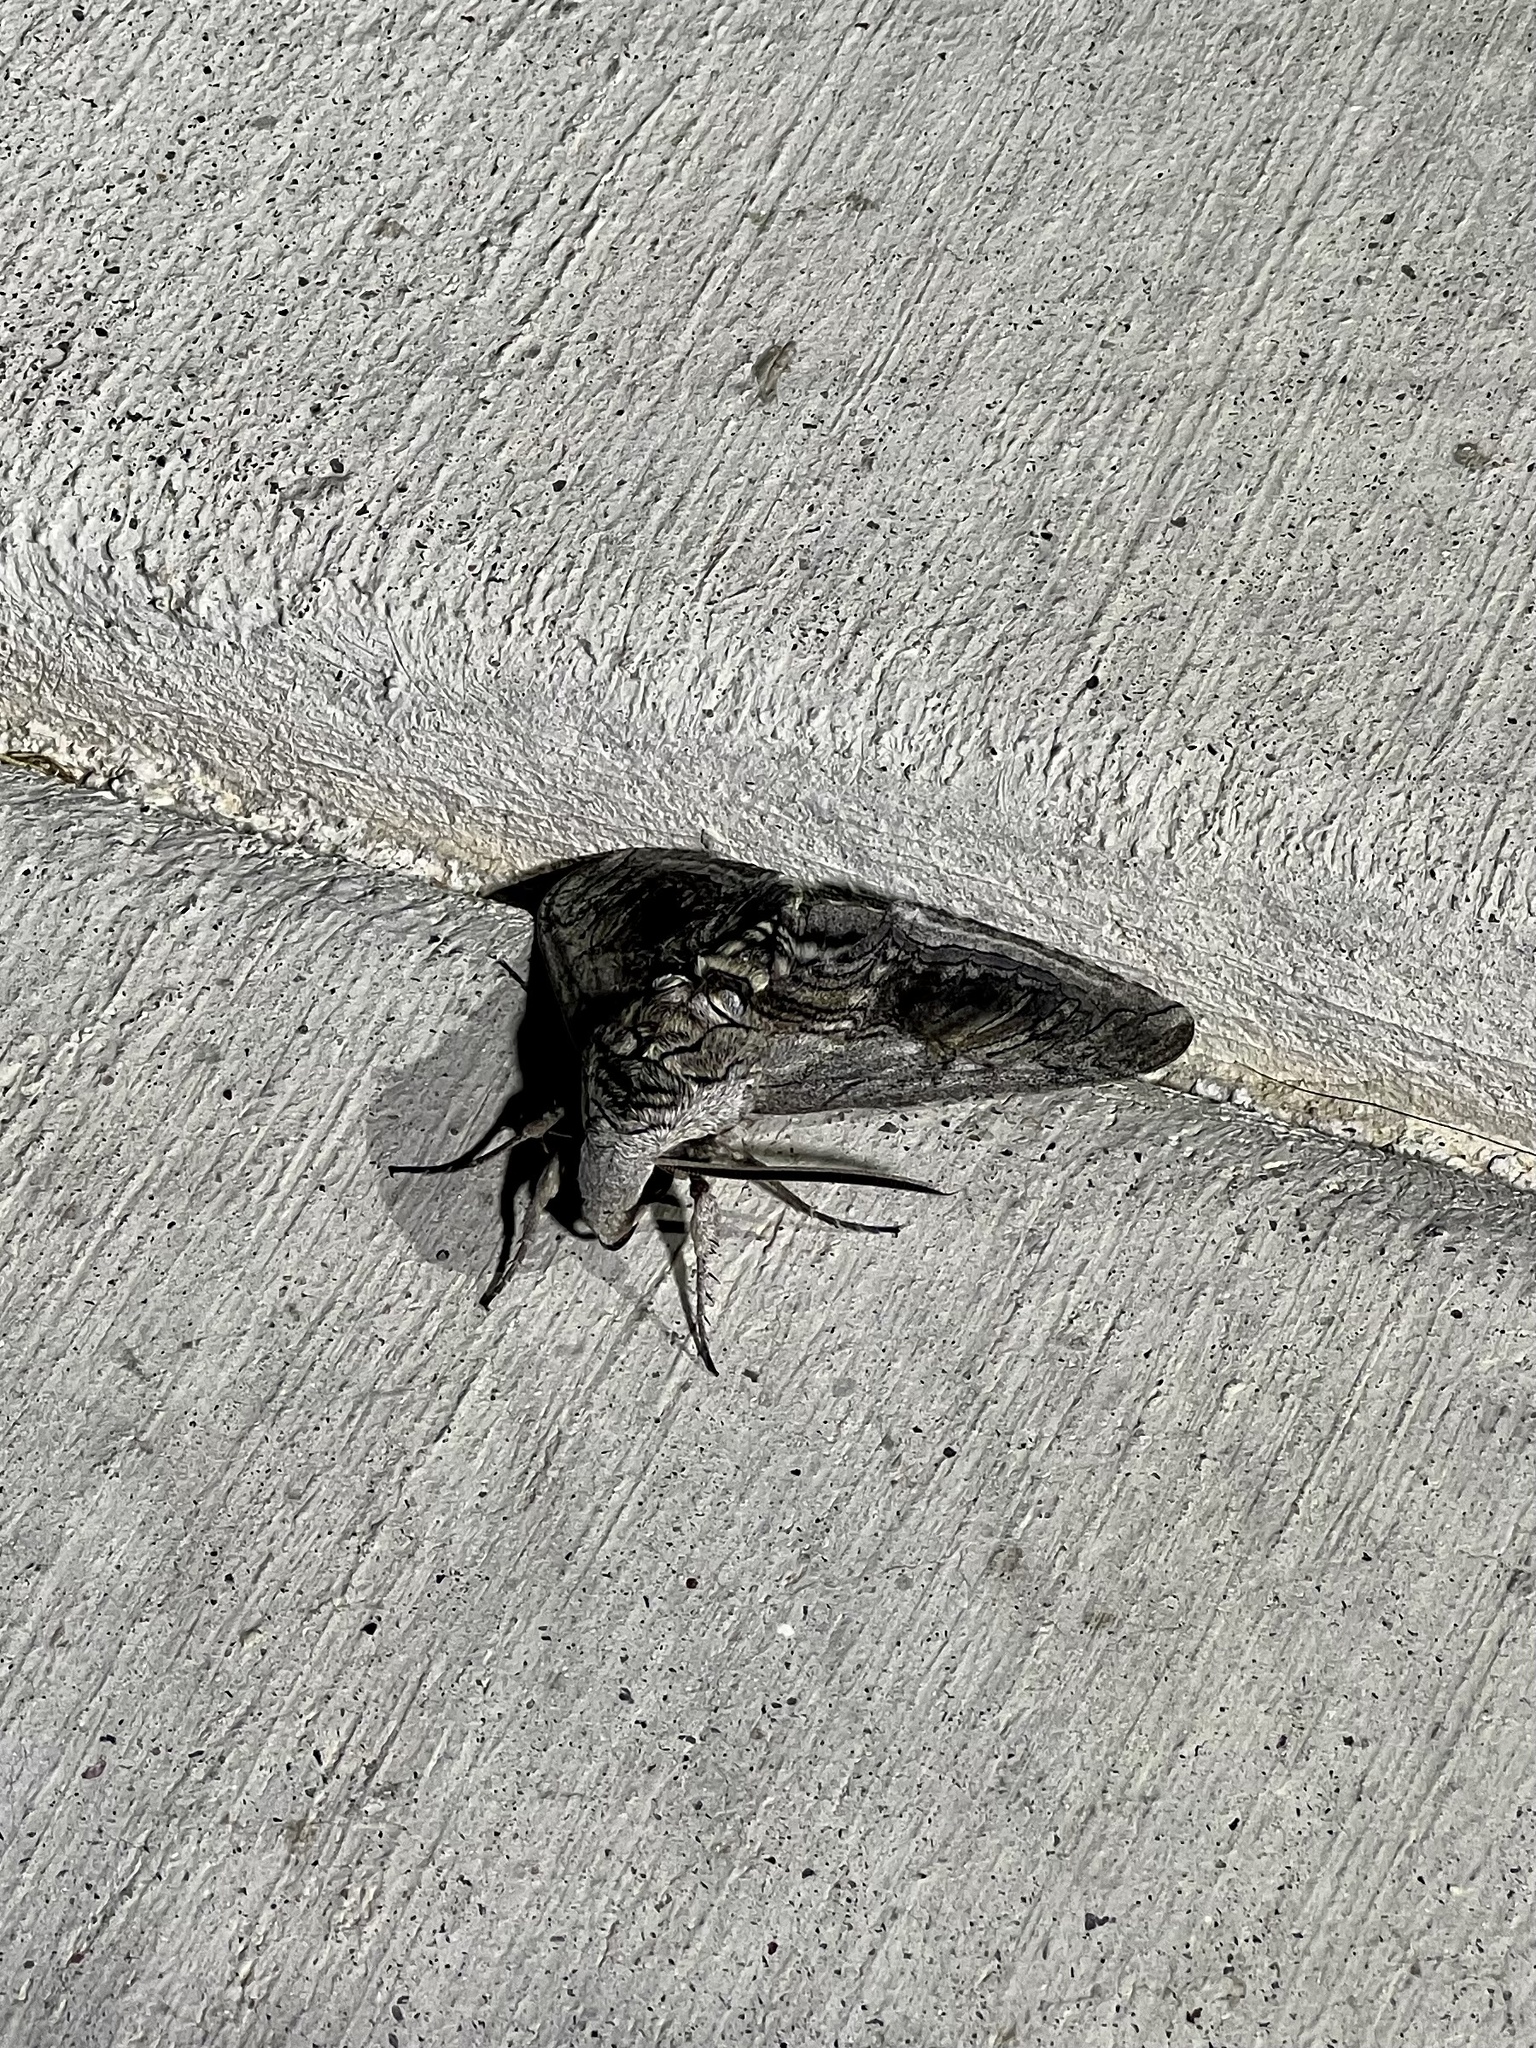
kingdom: Animalia
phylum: Arthropoda
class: Insecta
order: Lepidoptera
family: Sphingidae
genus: Manduca
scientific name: Manduca quinquemaculatus
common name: Five-spotted hawk-moth
